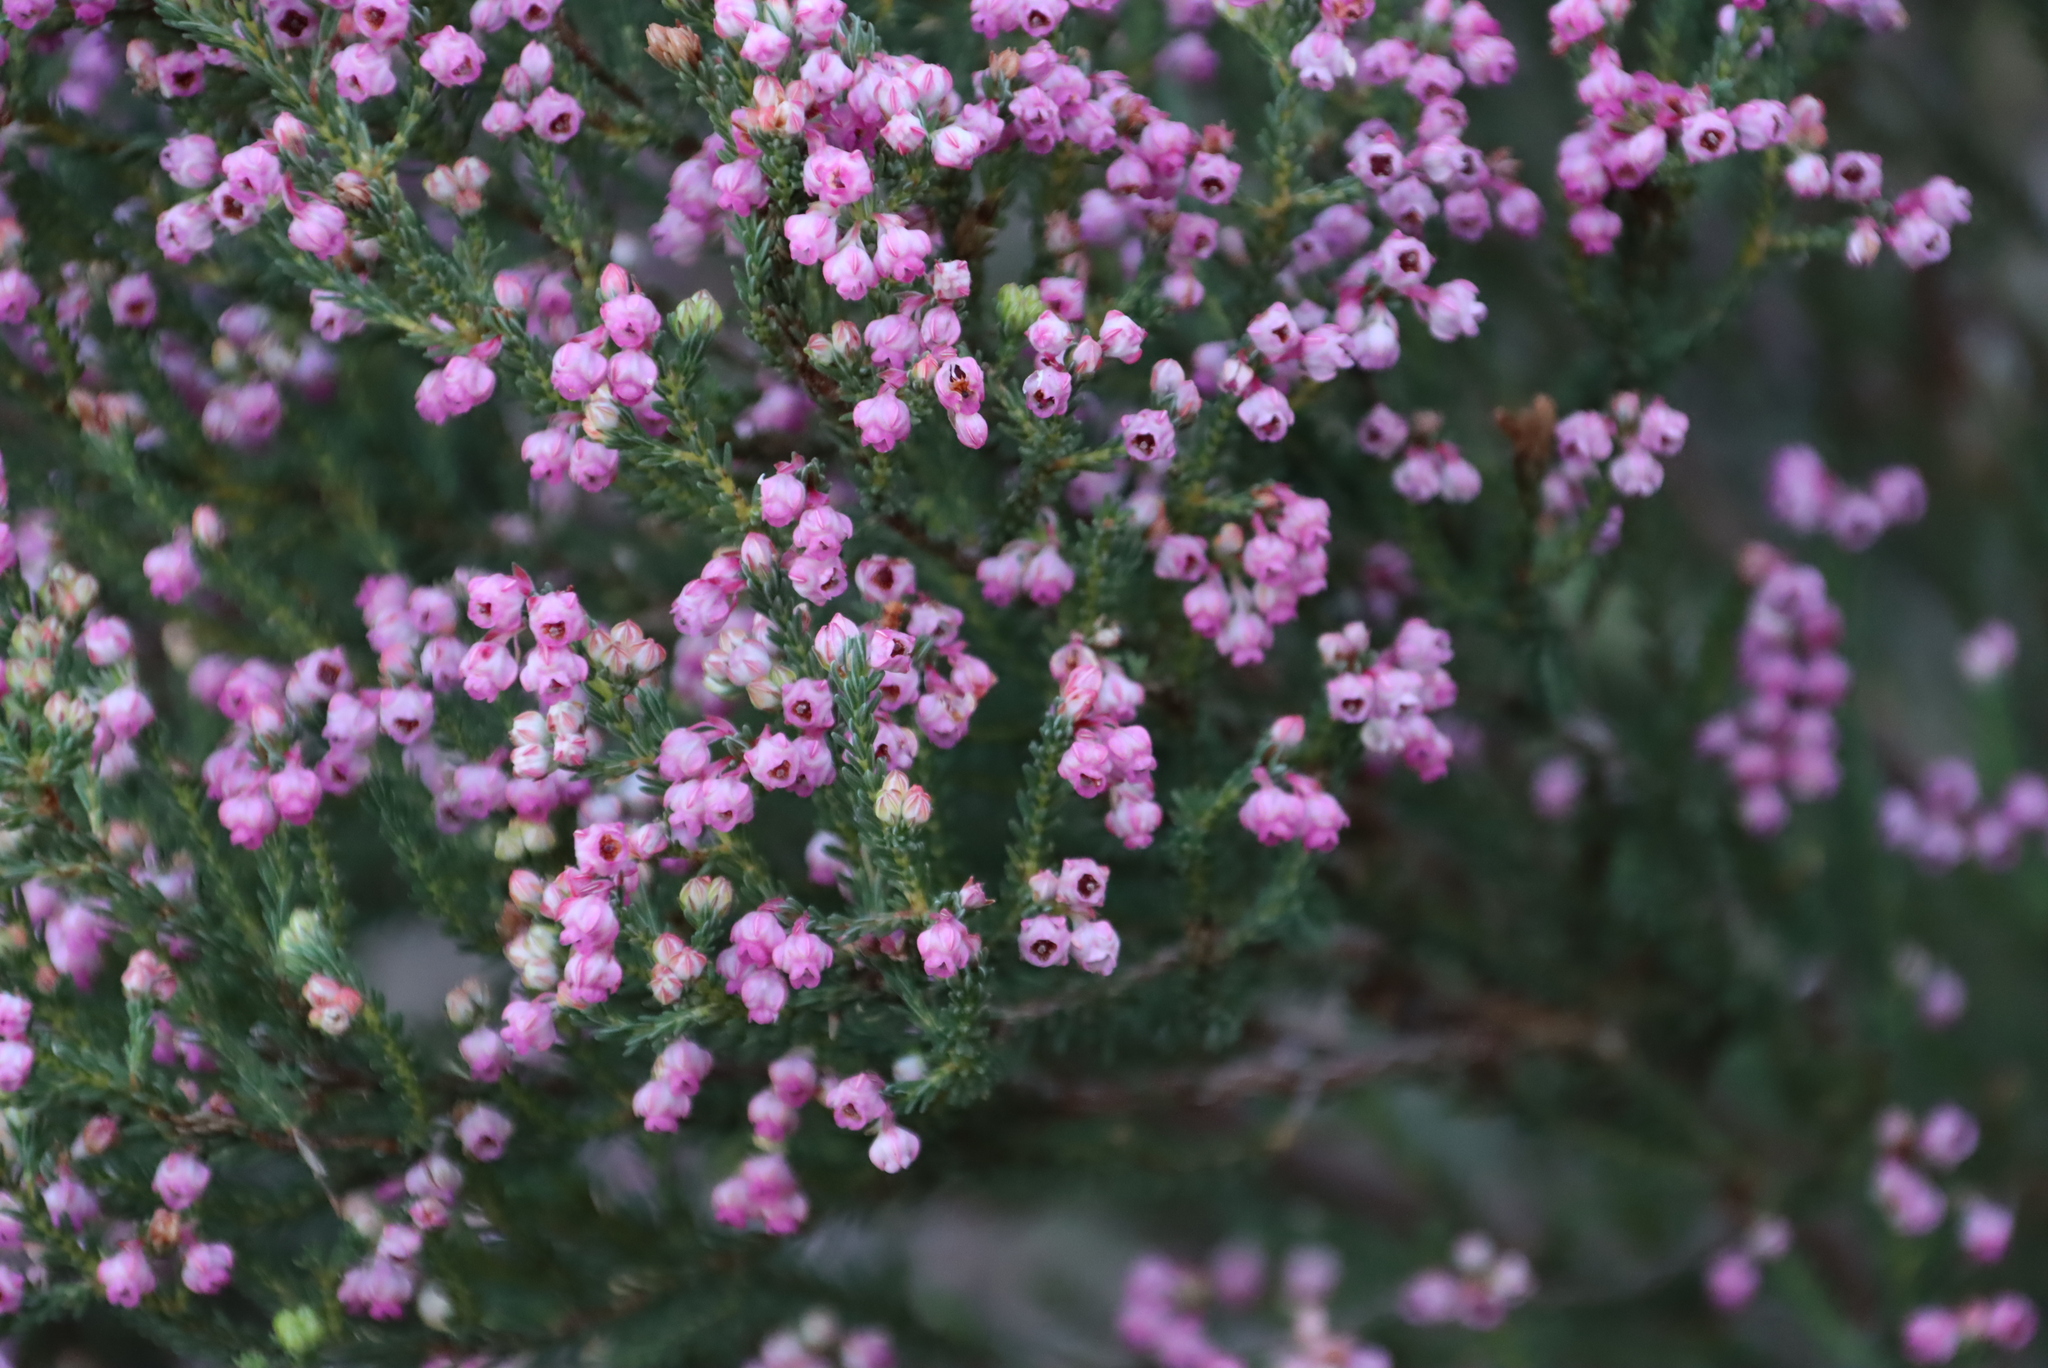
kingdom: Plantae
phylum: Tracheophyta
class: Magnoliopsida
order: Ericales
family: Ericaceae
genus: Erica
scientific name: Erica baccans
